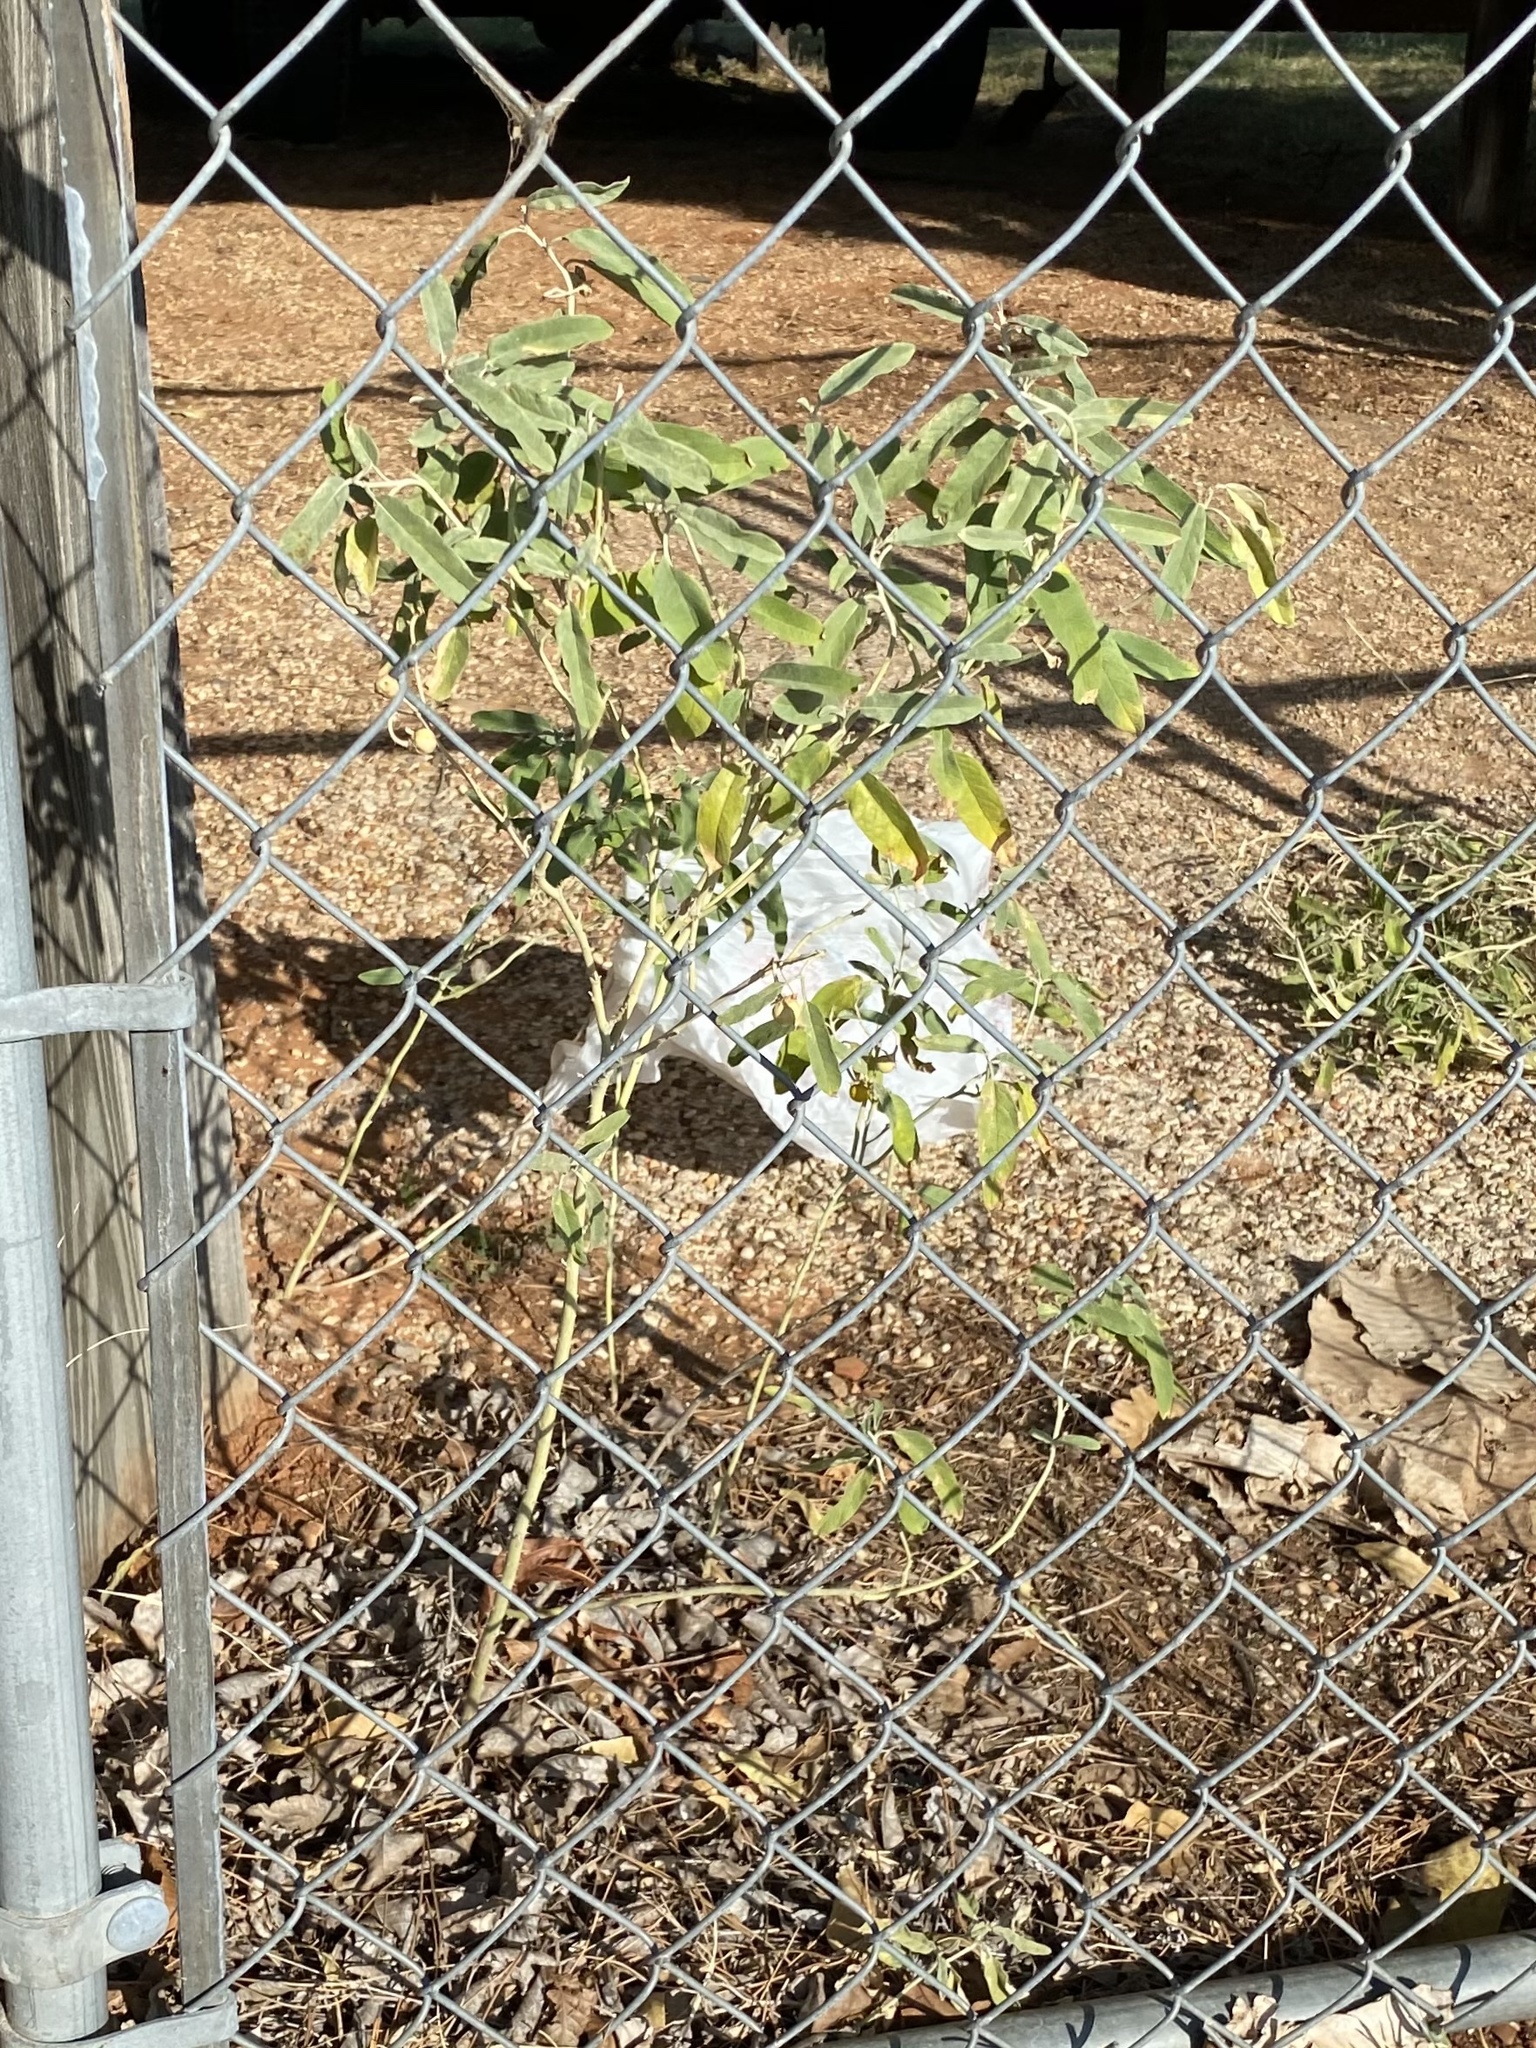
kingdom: Plantae
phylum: Tracheophyta
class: Magnoliopsida
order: Solanales
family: Solanaceae
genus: Solanum
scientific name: Solanum elaeagnifolium
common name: Silverleaf nightshade
